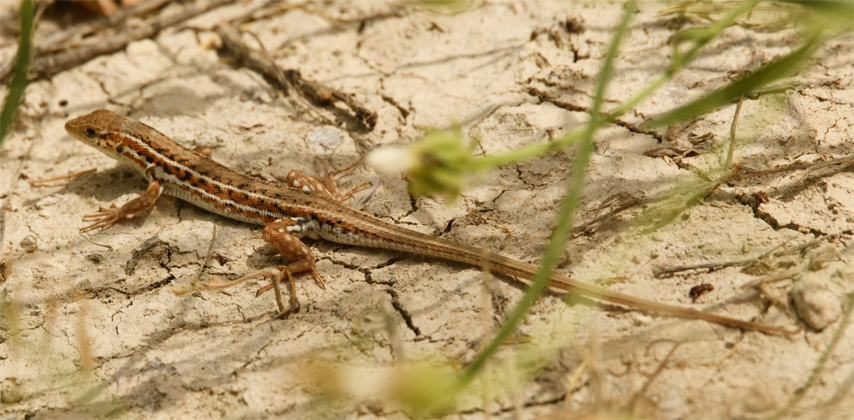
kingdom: Animalia
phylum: Chordata
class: Squamata
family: Lacertidae
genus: Ophisops
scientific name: Ophisops elegans
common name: Snake-eyed lizard
